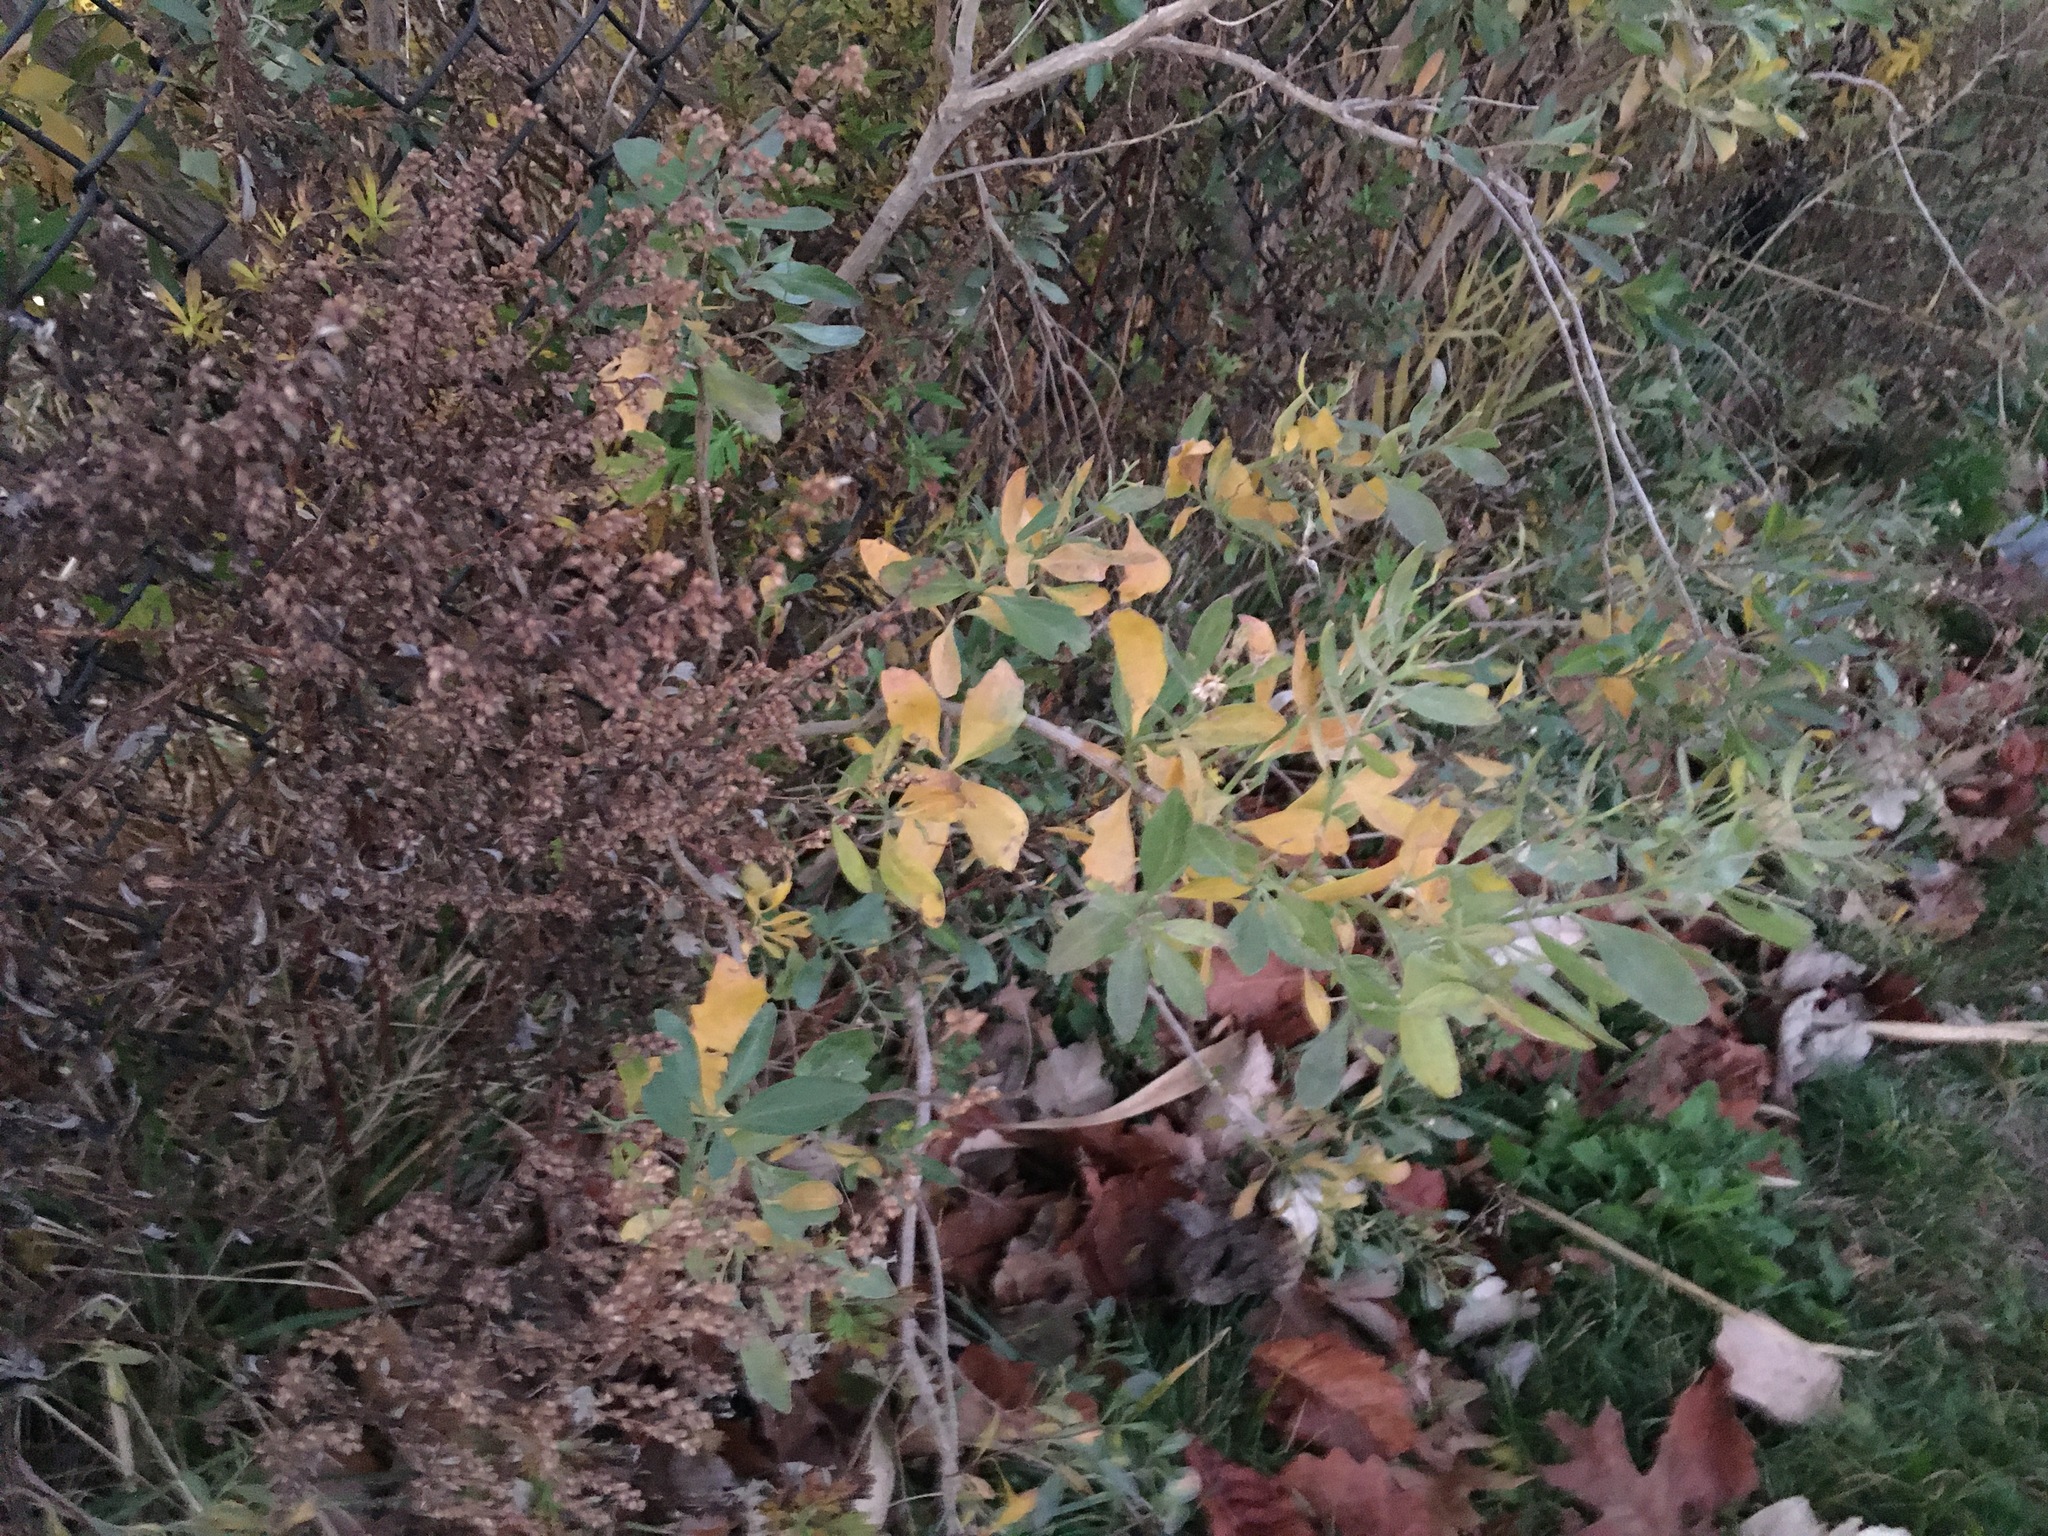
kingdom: Plantae
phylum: Tracheophyta
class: Magnoliopsida
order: Asterales
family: Asteraceae
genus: Baccharis
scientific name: Baccharis halimifolia
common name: Eastern baccharis
